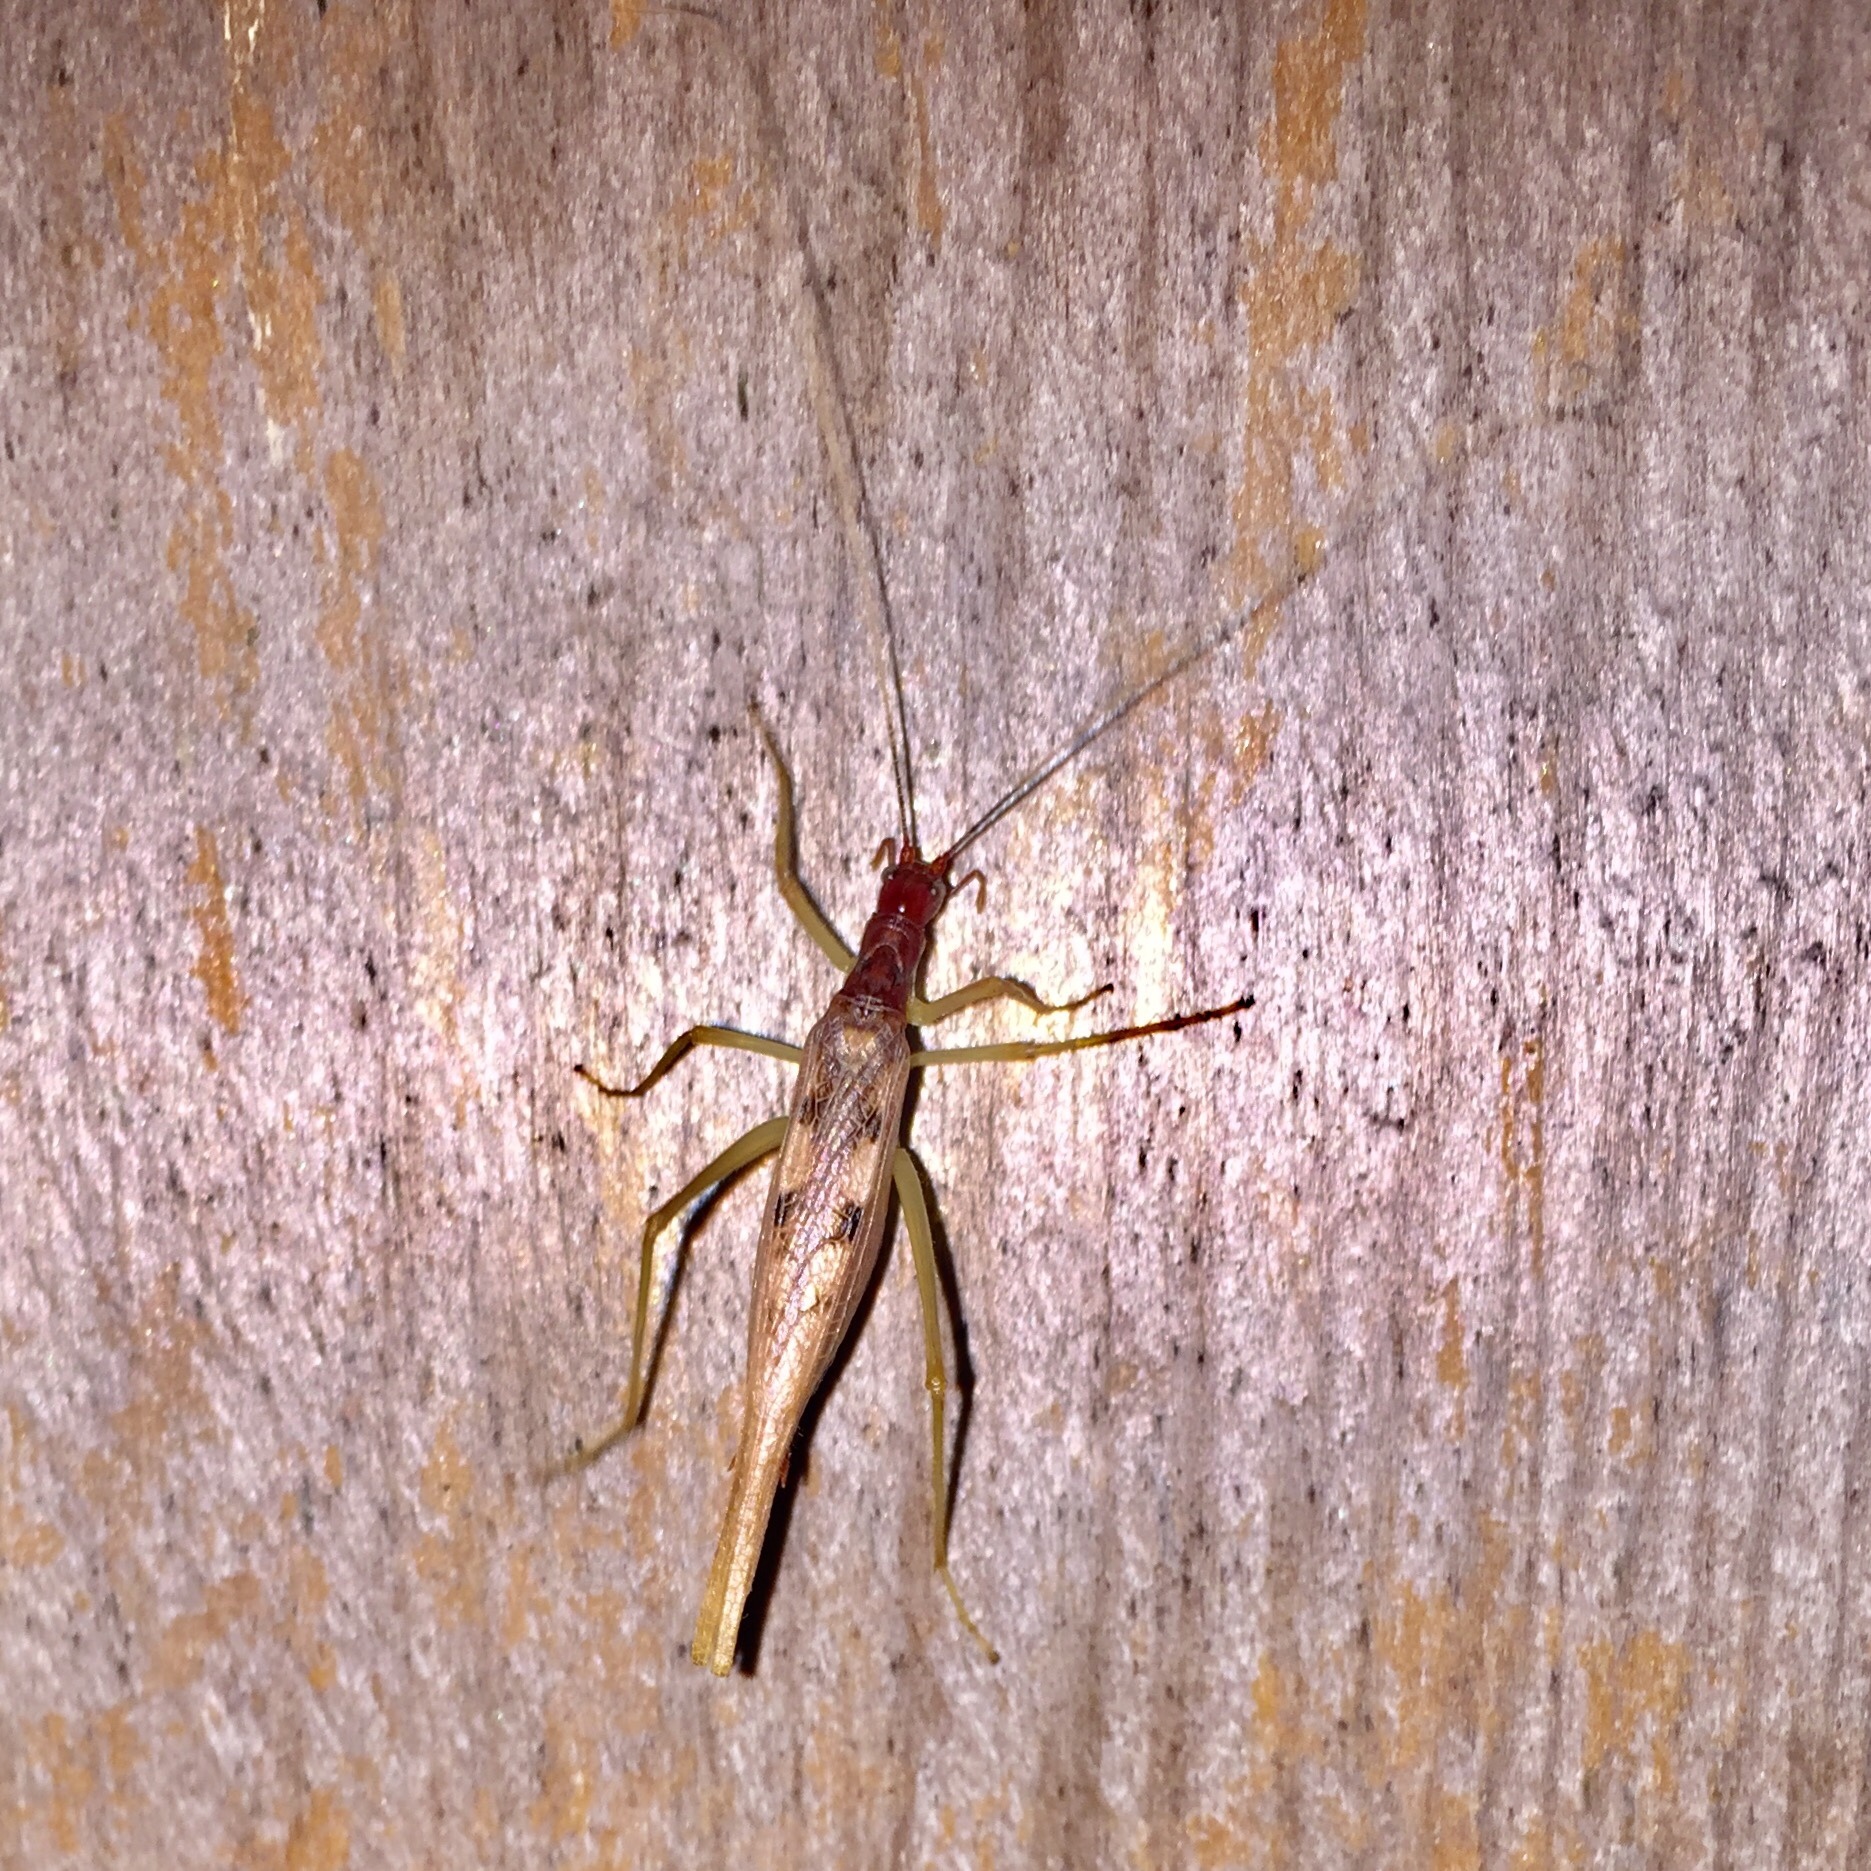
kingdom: Animalia
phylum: Arthropoda
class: Insecta
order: Orthoptera
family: Gryllidae
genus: Neoxabea
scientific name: Neoxabea bipunctata
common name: Two-spotted tree cricket
